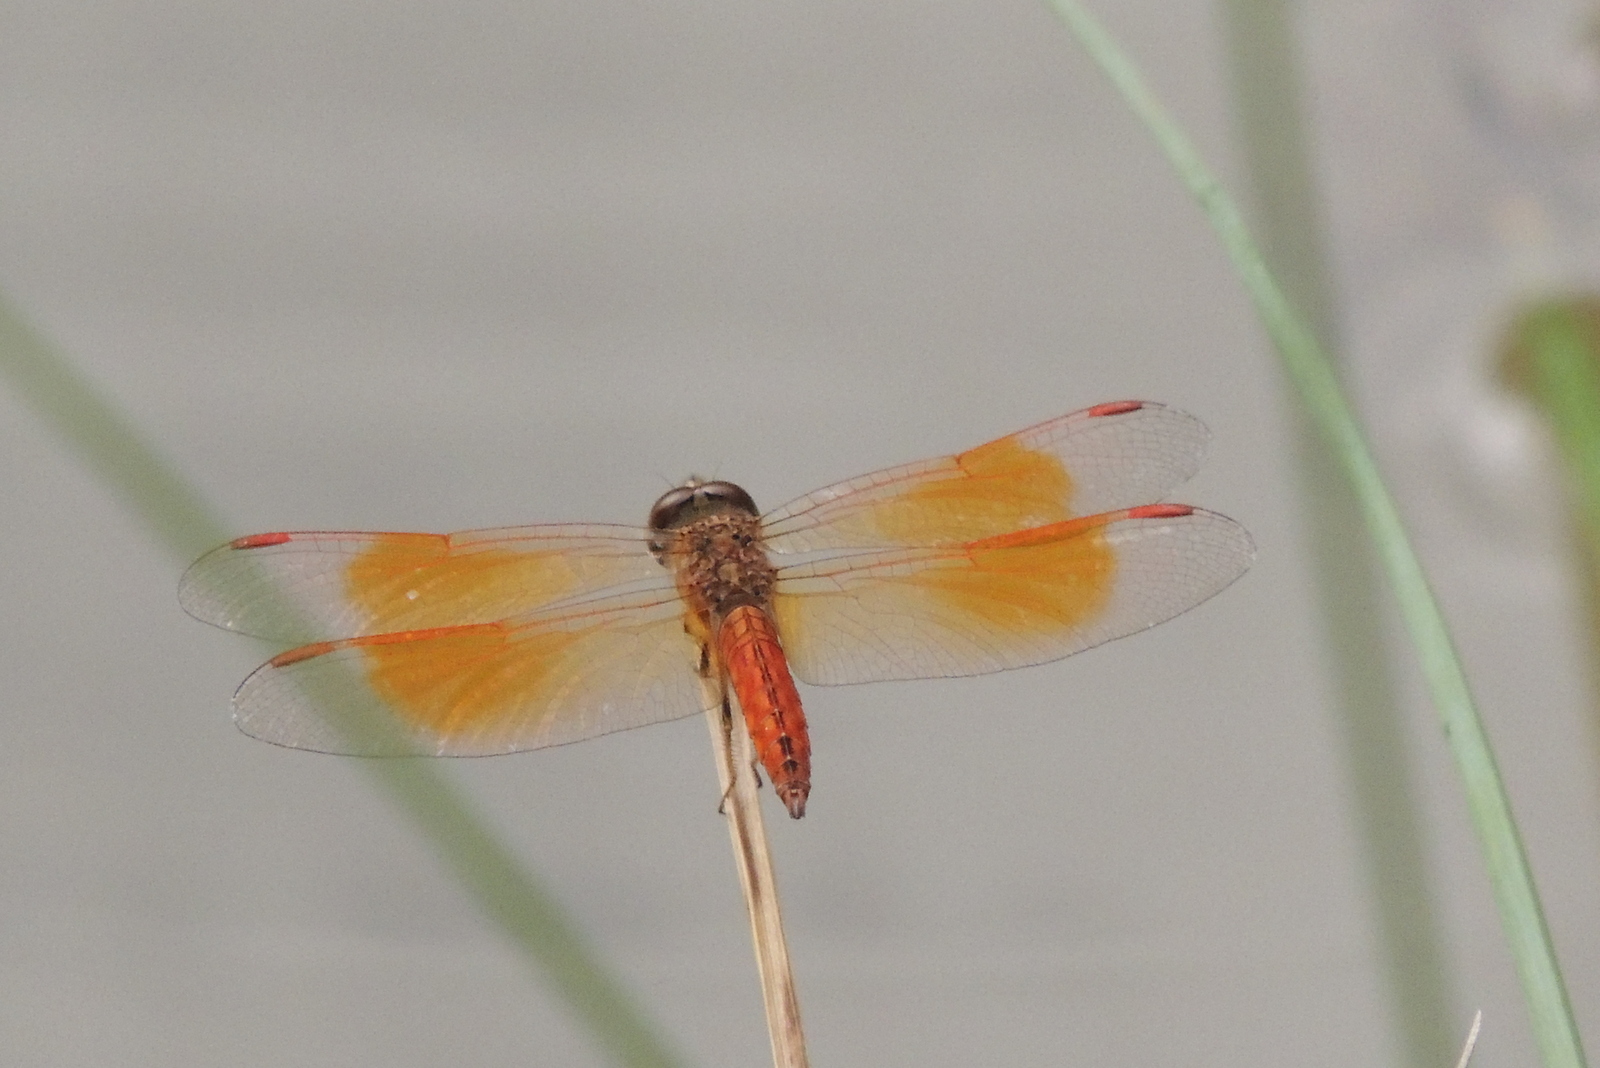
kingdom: Animalia
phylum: Arthropoda
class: Insecta
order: Odonata
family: Libellulidae
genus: Brachythemis
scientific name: Brachythemis contaminata
